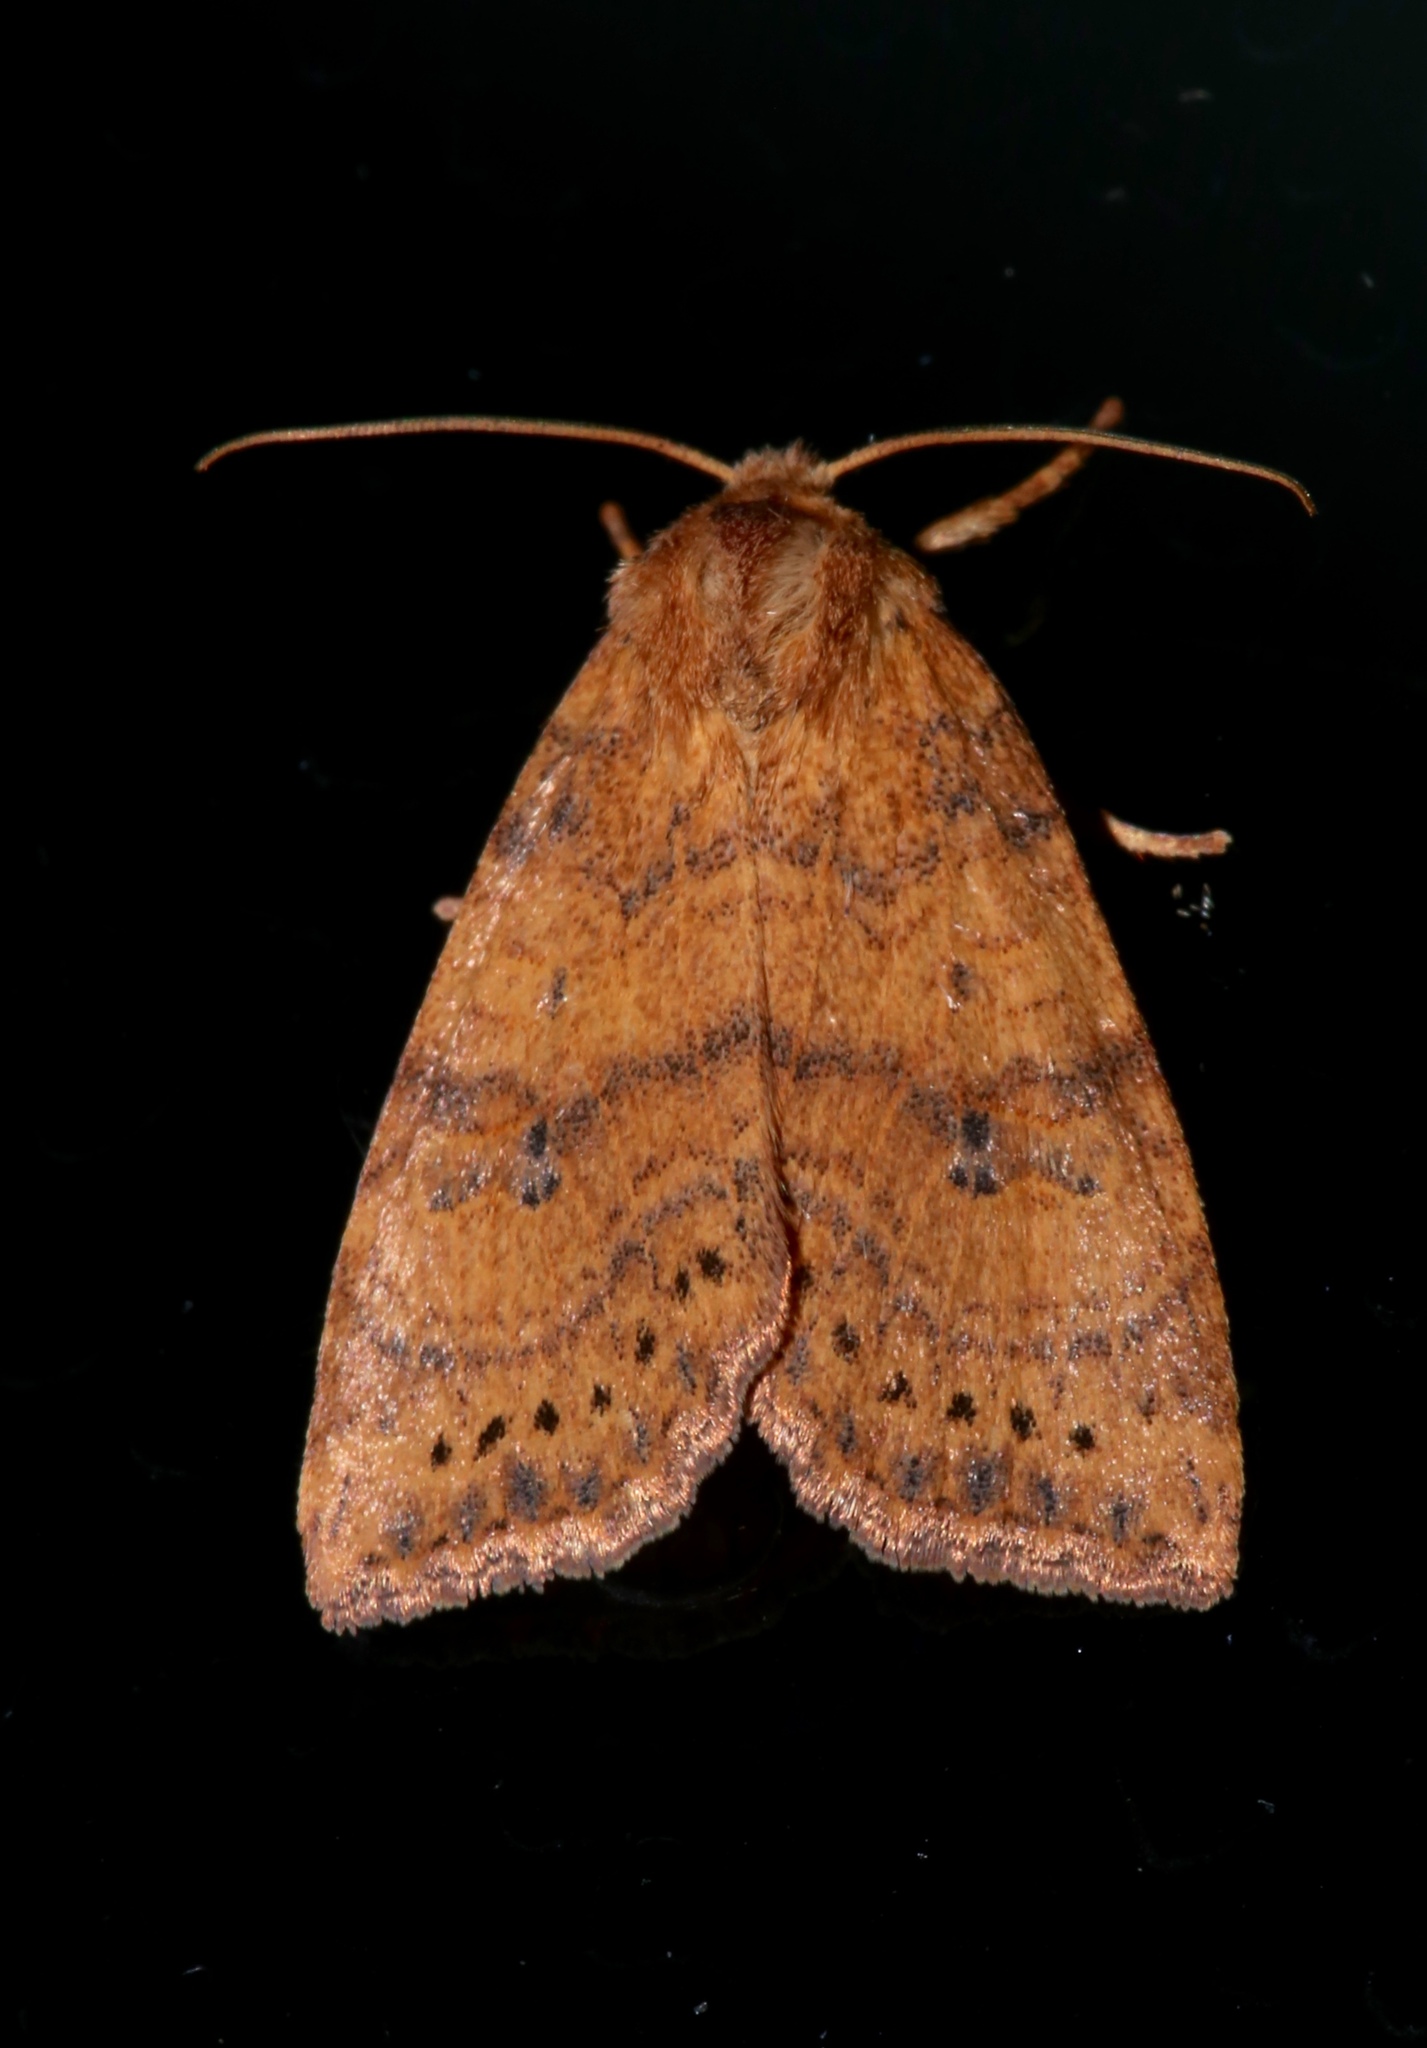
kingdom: Animalia
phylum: Arthropoda
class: Insecta
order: Lepidoptera
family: Noctuidae
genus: Anathix
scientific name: Anathix ralla
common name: Dotted sallow
